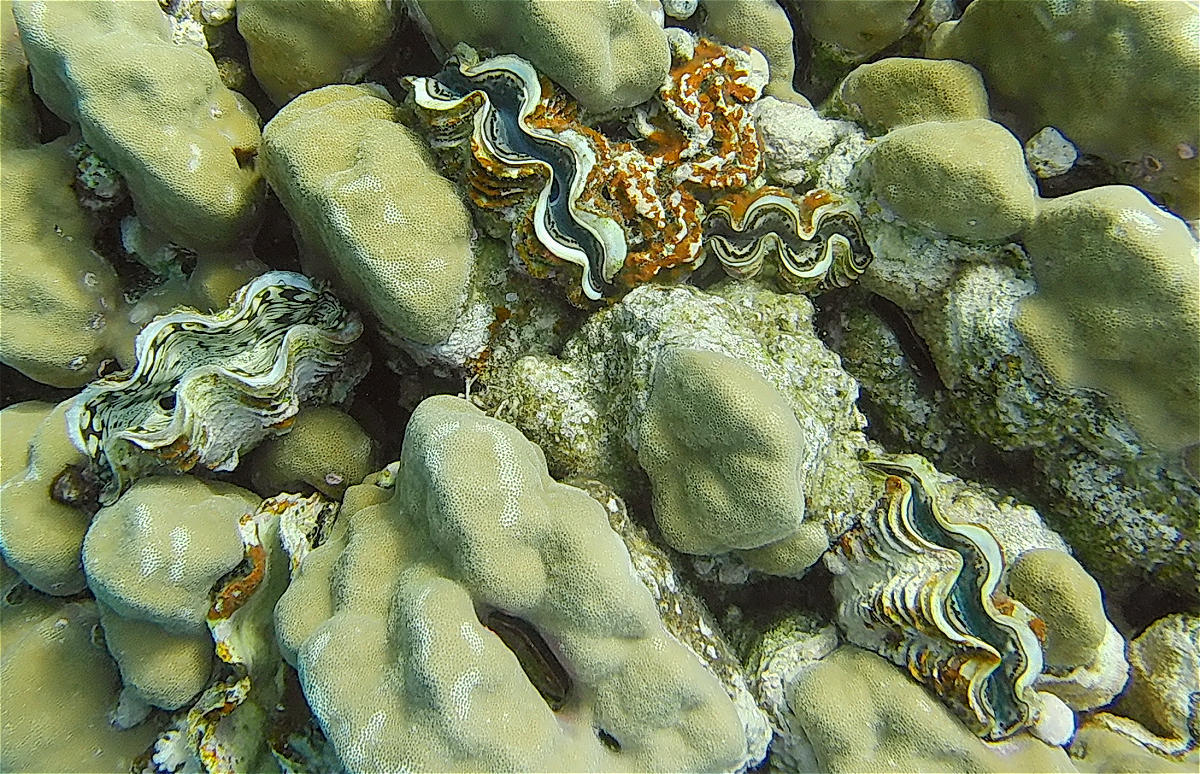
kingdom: Animalia
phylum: Mollusca
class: Bivalvia
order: Cardiida
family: Cardiidae
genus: Tridacna
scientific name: Tridacna maxima
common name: Small giant clam
